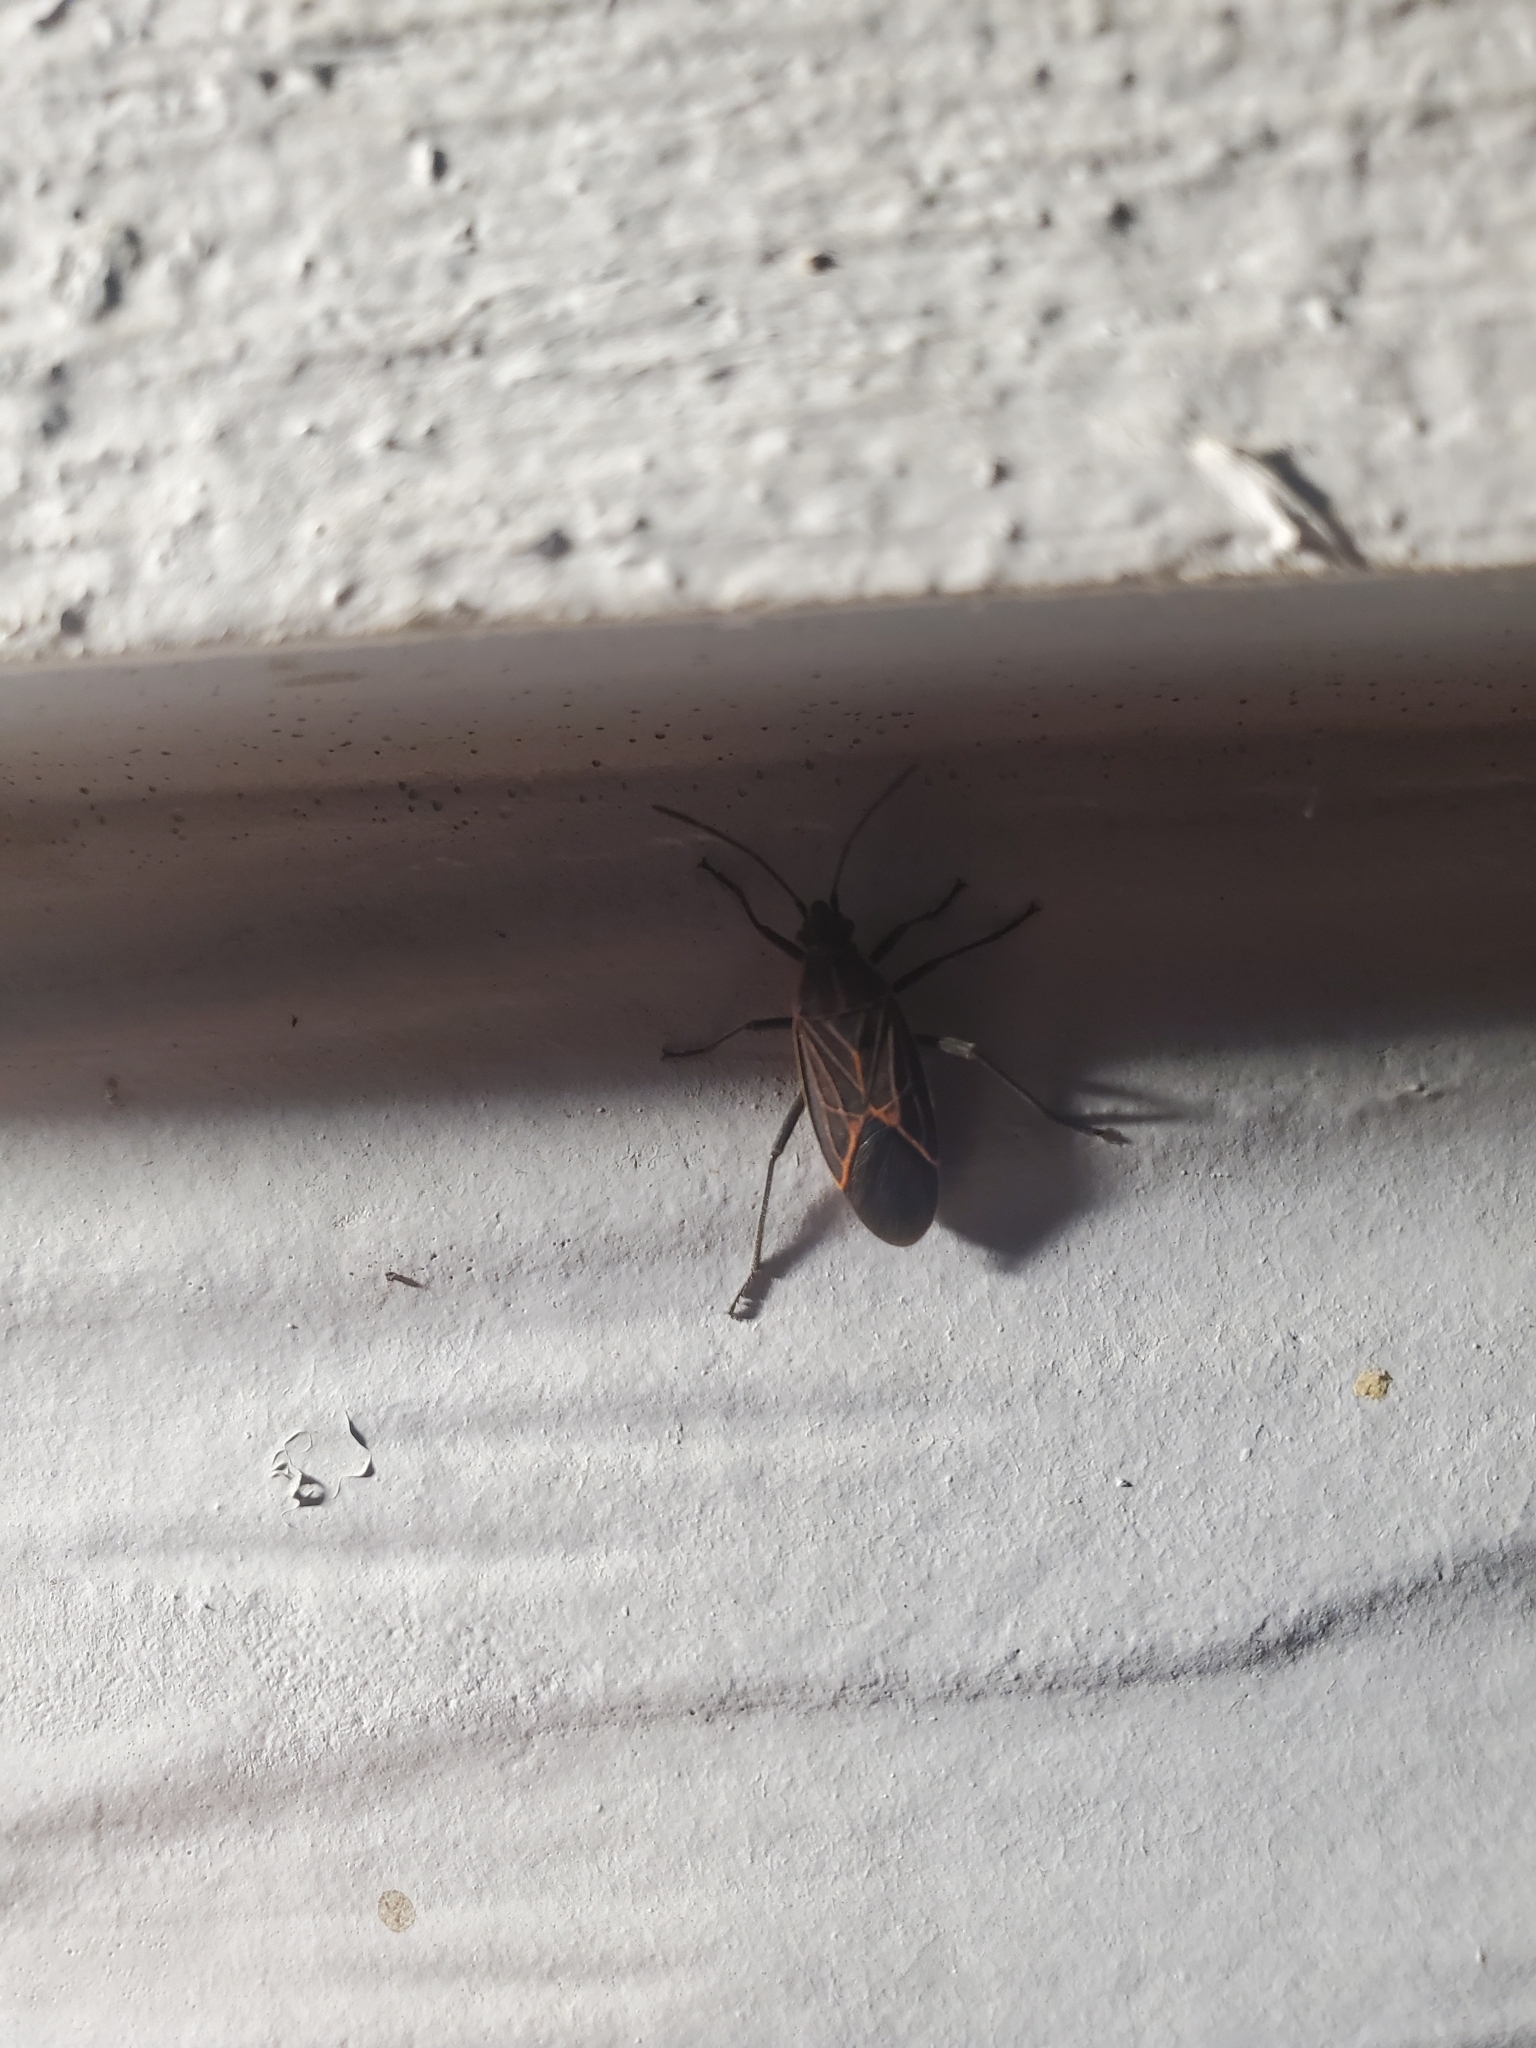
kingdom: Animalia
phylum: Arthropoda
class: Insecta
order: Hemiptera
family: Rhopalidae
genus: Boisea
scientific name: Boisea rubrolineata
